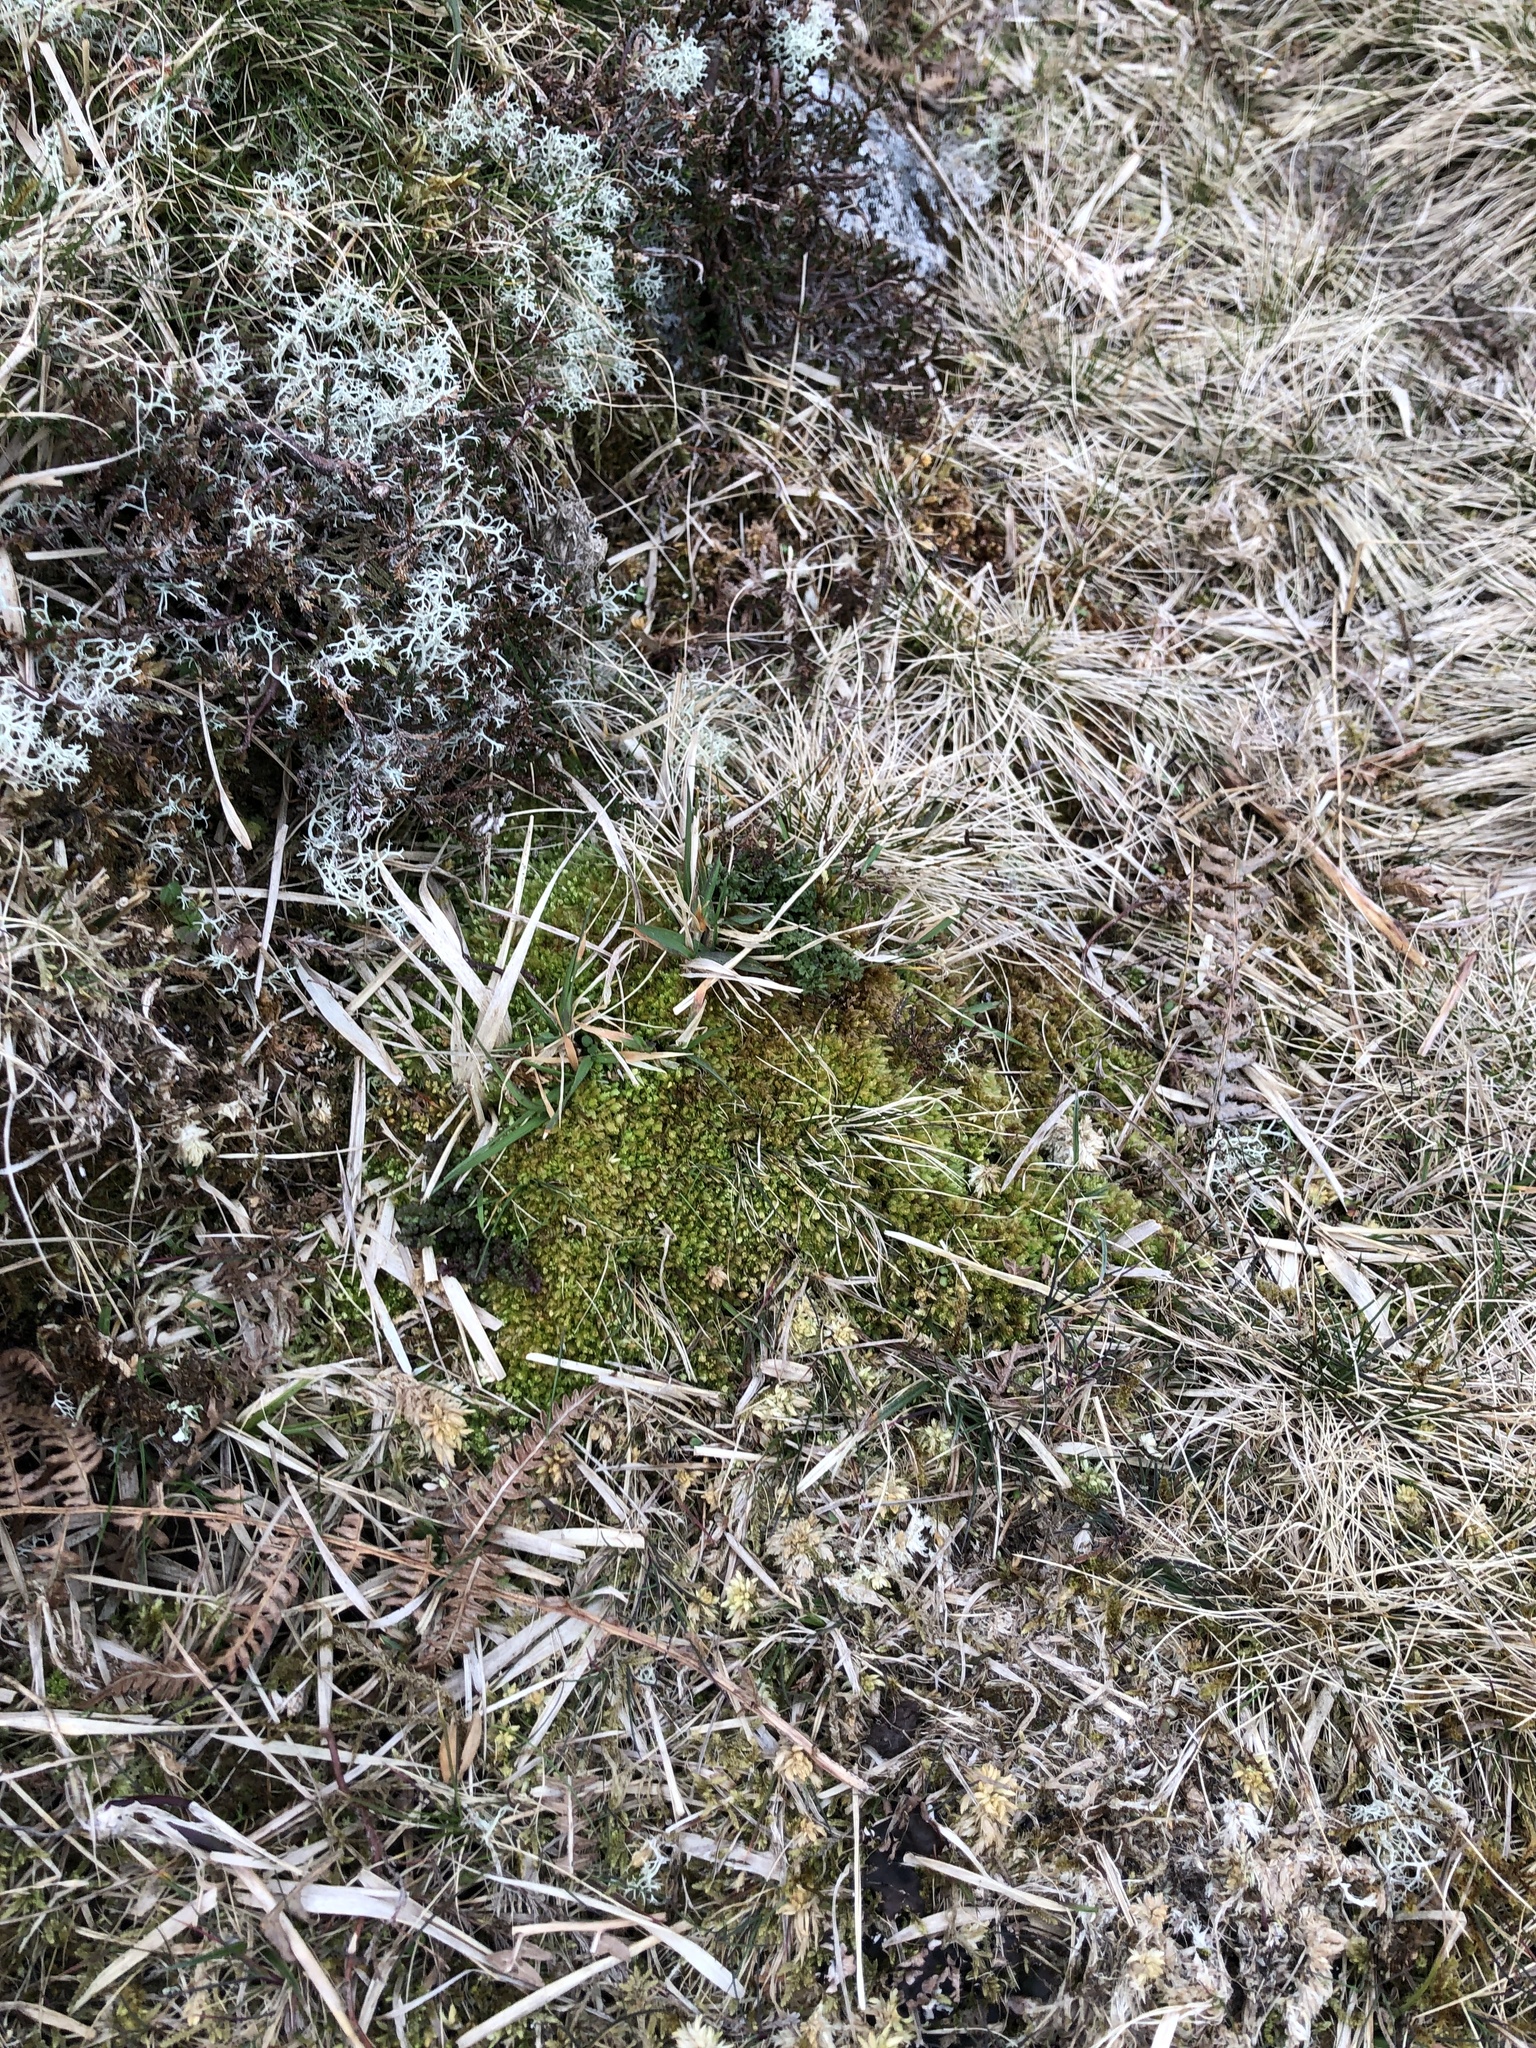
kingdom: Plantae
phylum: Bryophyta
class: Sphagnopsida
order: Sphagnales
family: Sphagnaceae
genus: Sphagnum
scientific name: Sphagnum compactum
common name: Compact peat moss
